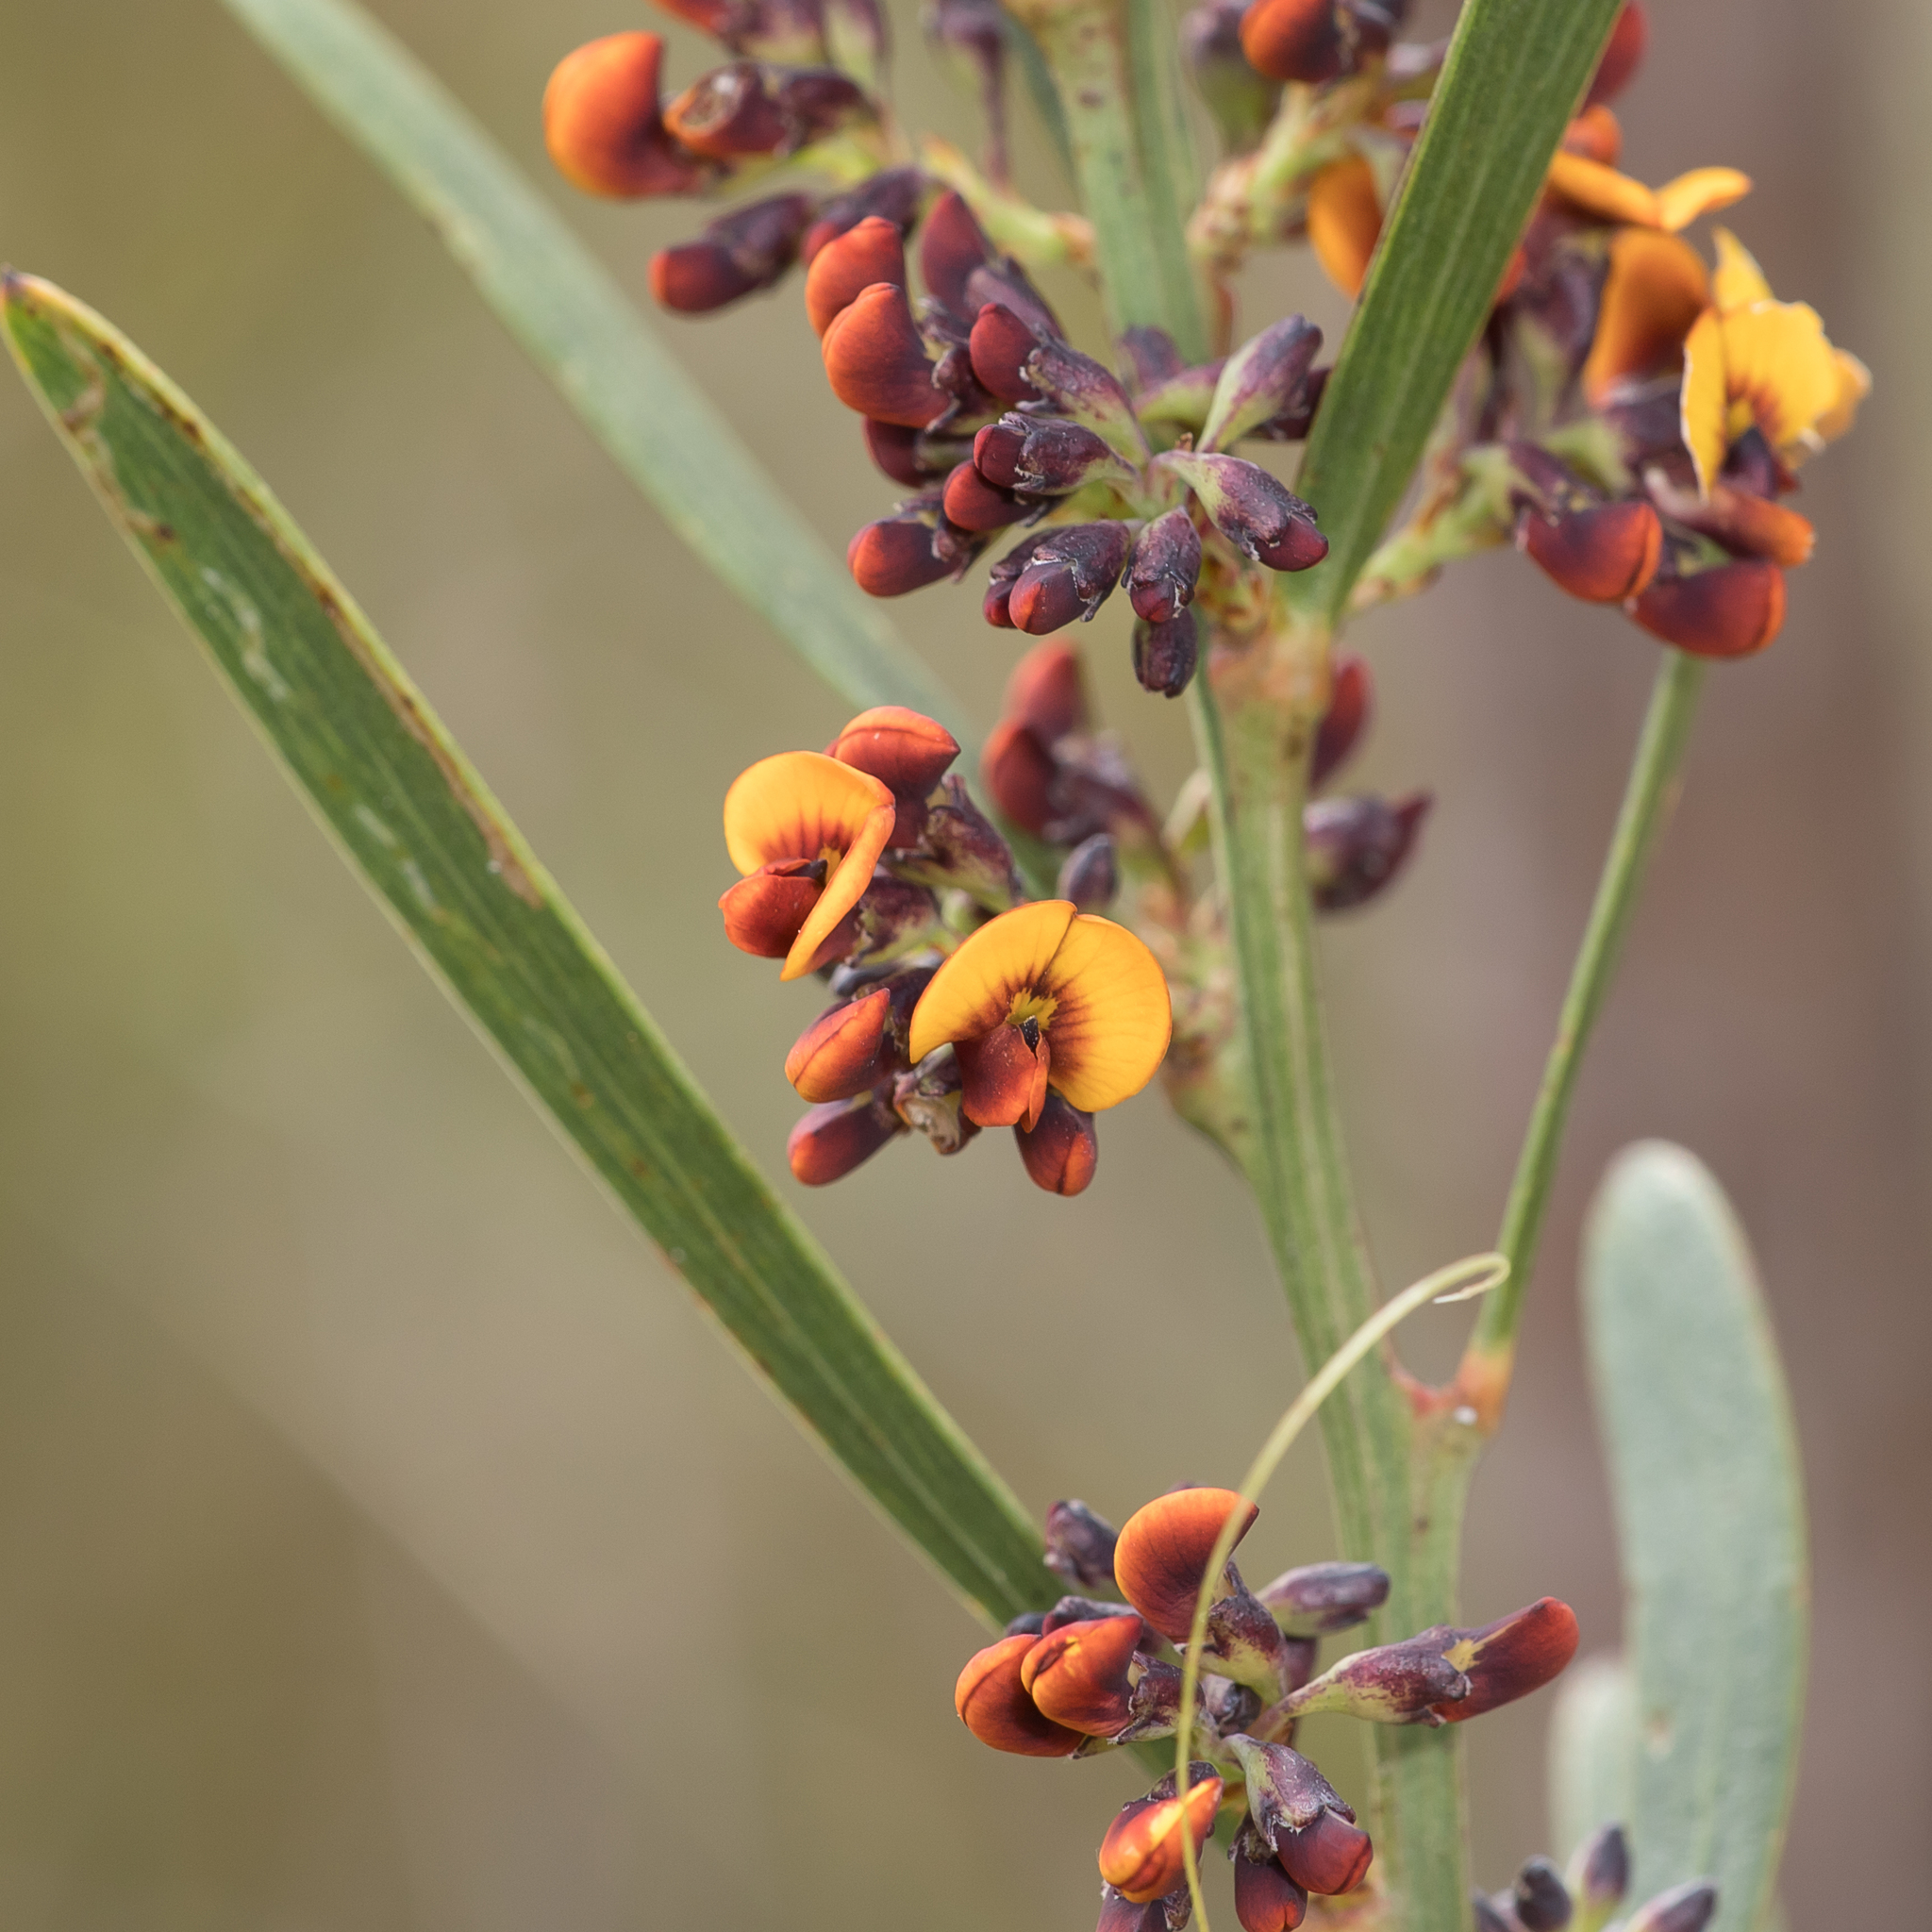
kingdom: Plantae
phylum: Tracheophyta
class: Magnoliopsida
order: Fabales
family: Fabaceae
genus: Daviesia
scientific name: Daviesia leptophylla
